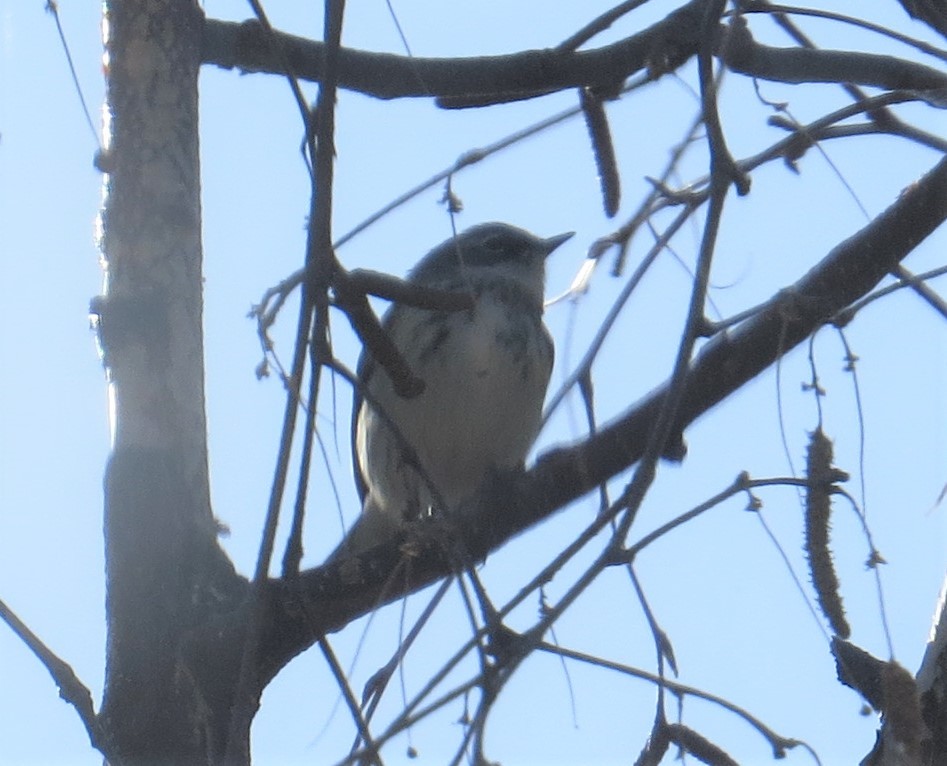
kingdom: Animalia
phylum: Chordata
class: Aves
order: Passeriformes
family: Parulidae
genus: Setophaga
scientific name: Setophaga coronata
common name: Myrtle warbler
